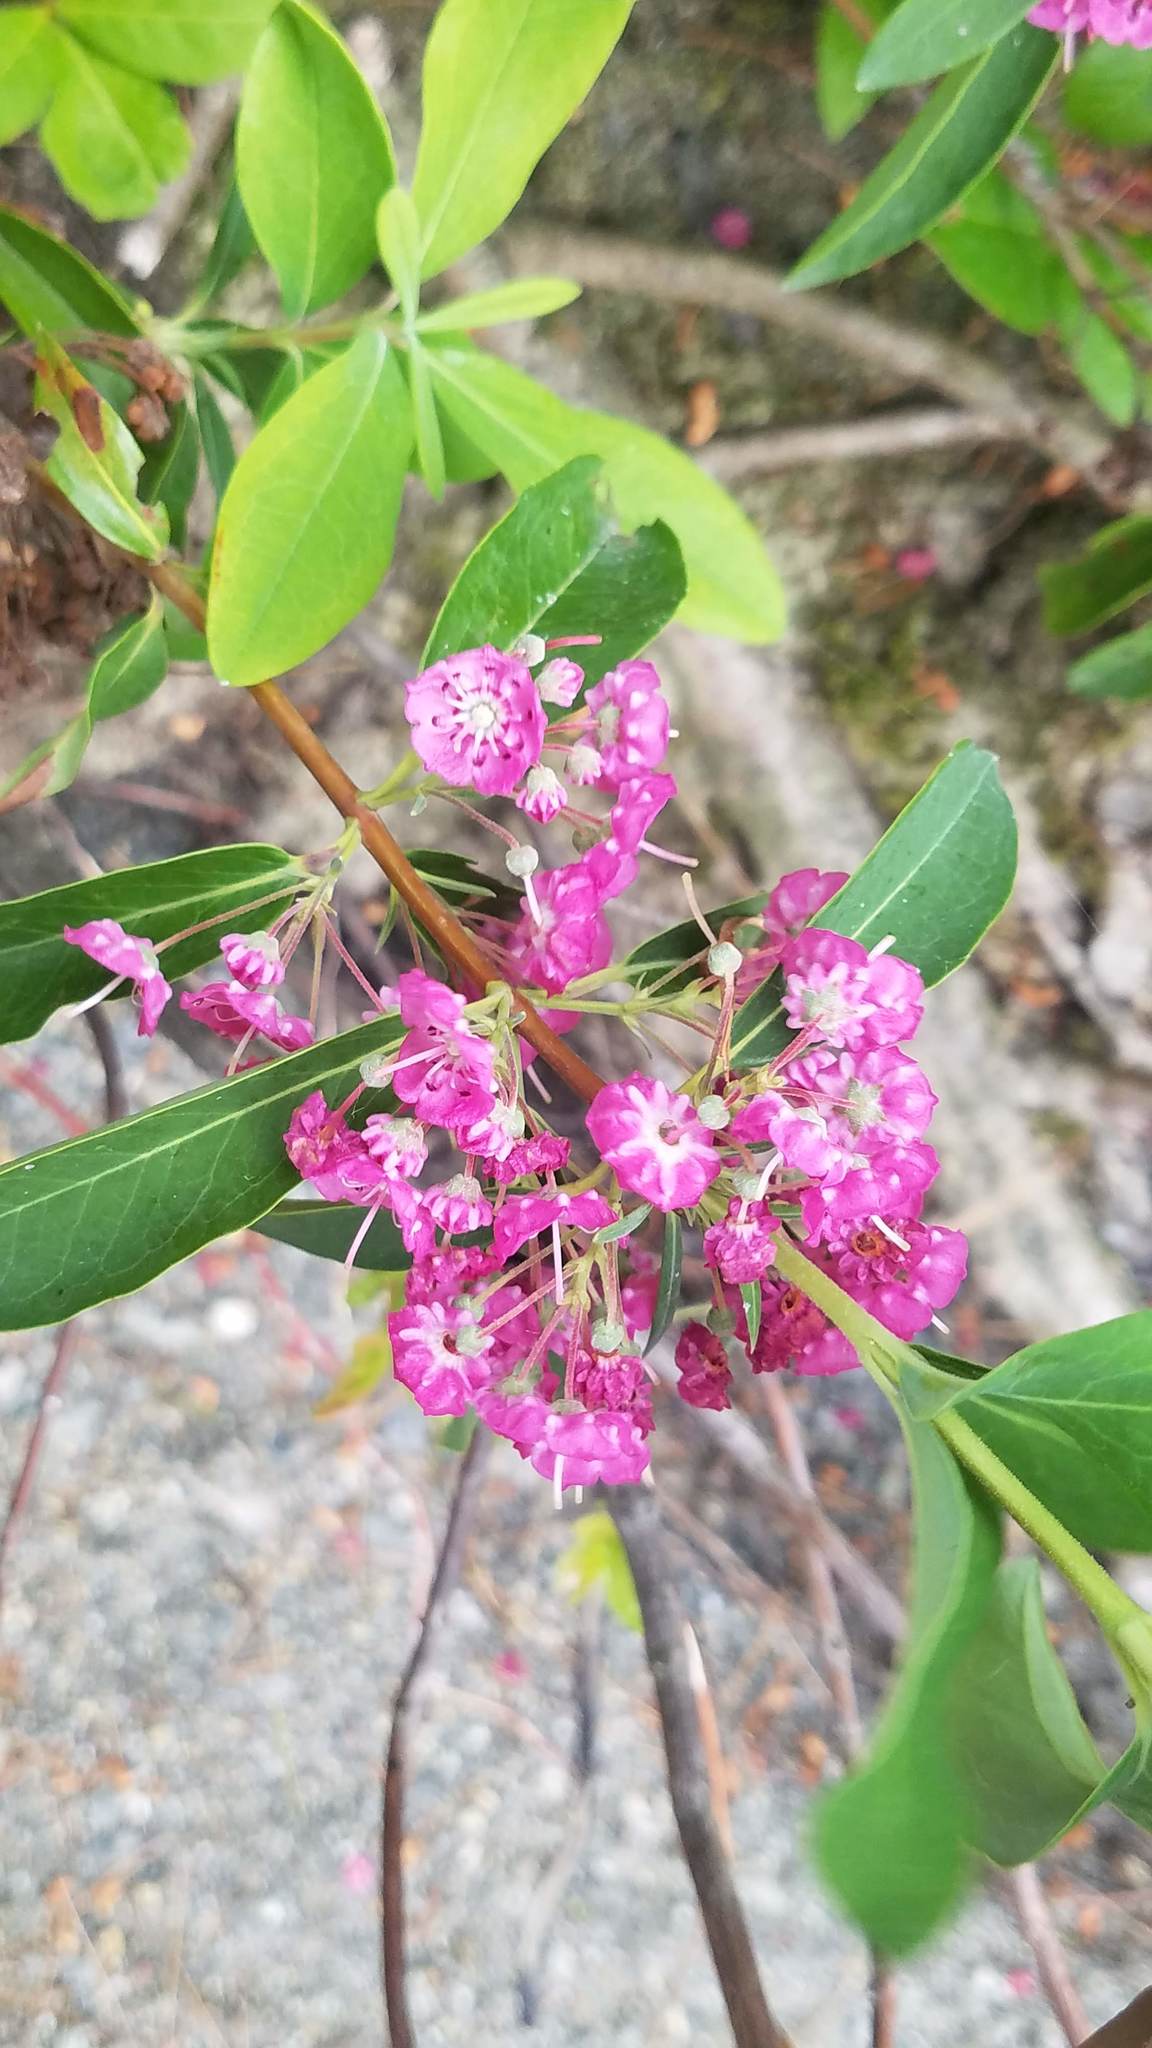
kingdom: Plantae
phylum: Tracheophyta
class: Magnoliopsida
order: Ericales
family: Ericaceae
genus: Kalmia
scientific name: Kalmia angustifolia
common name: Sheep-laurel
